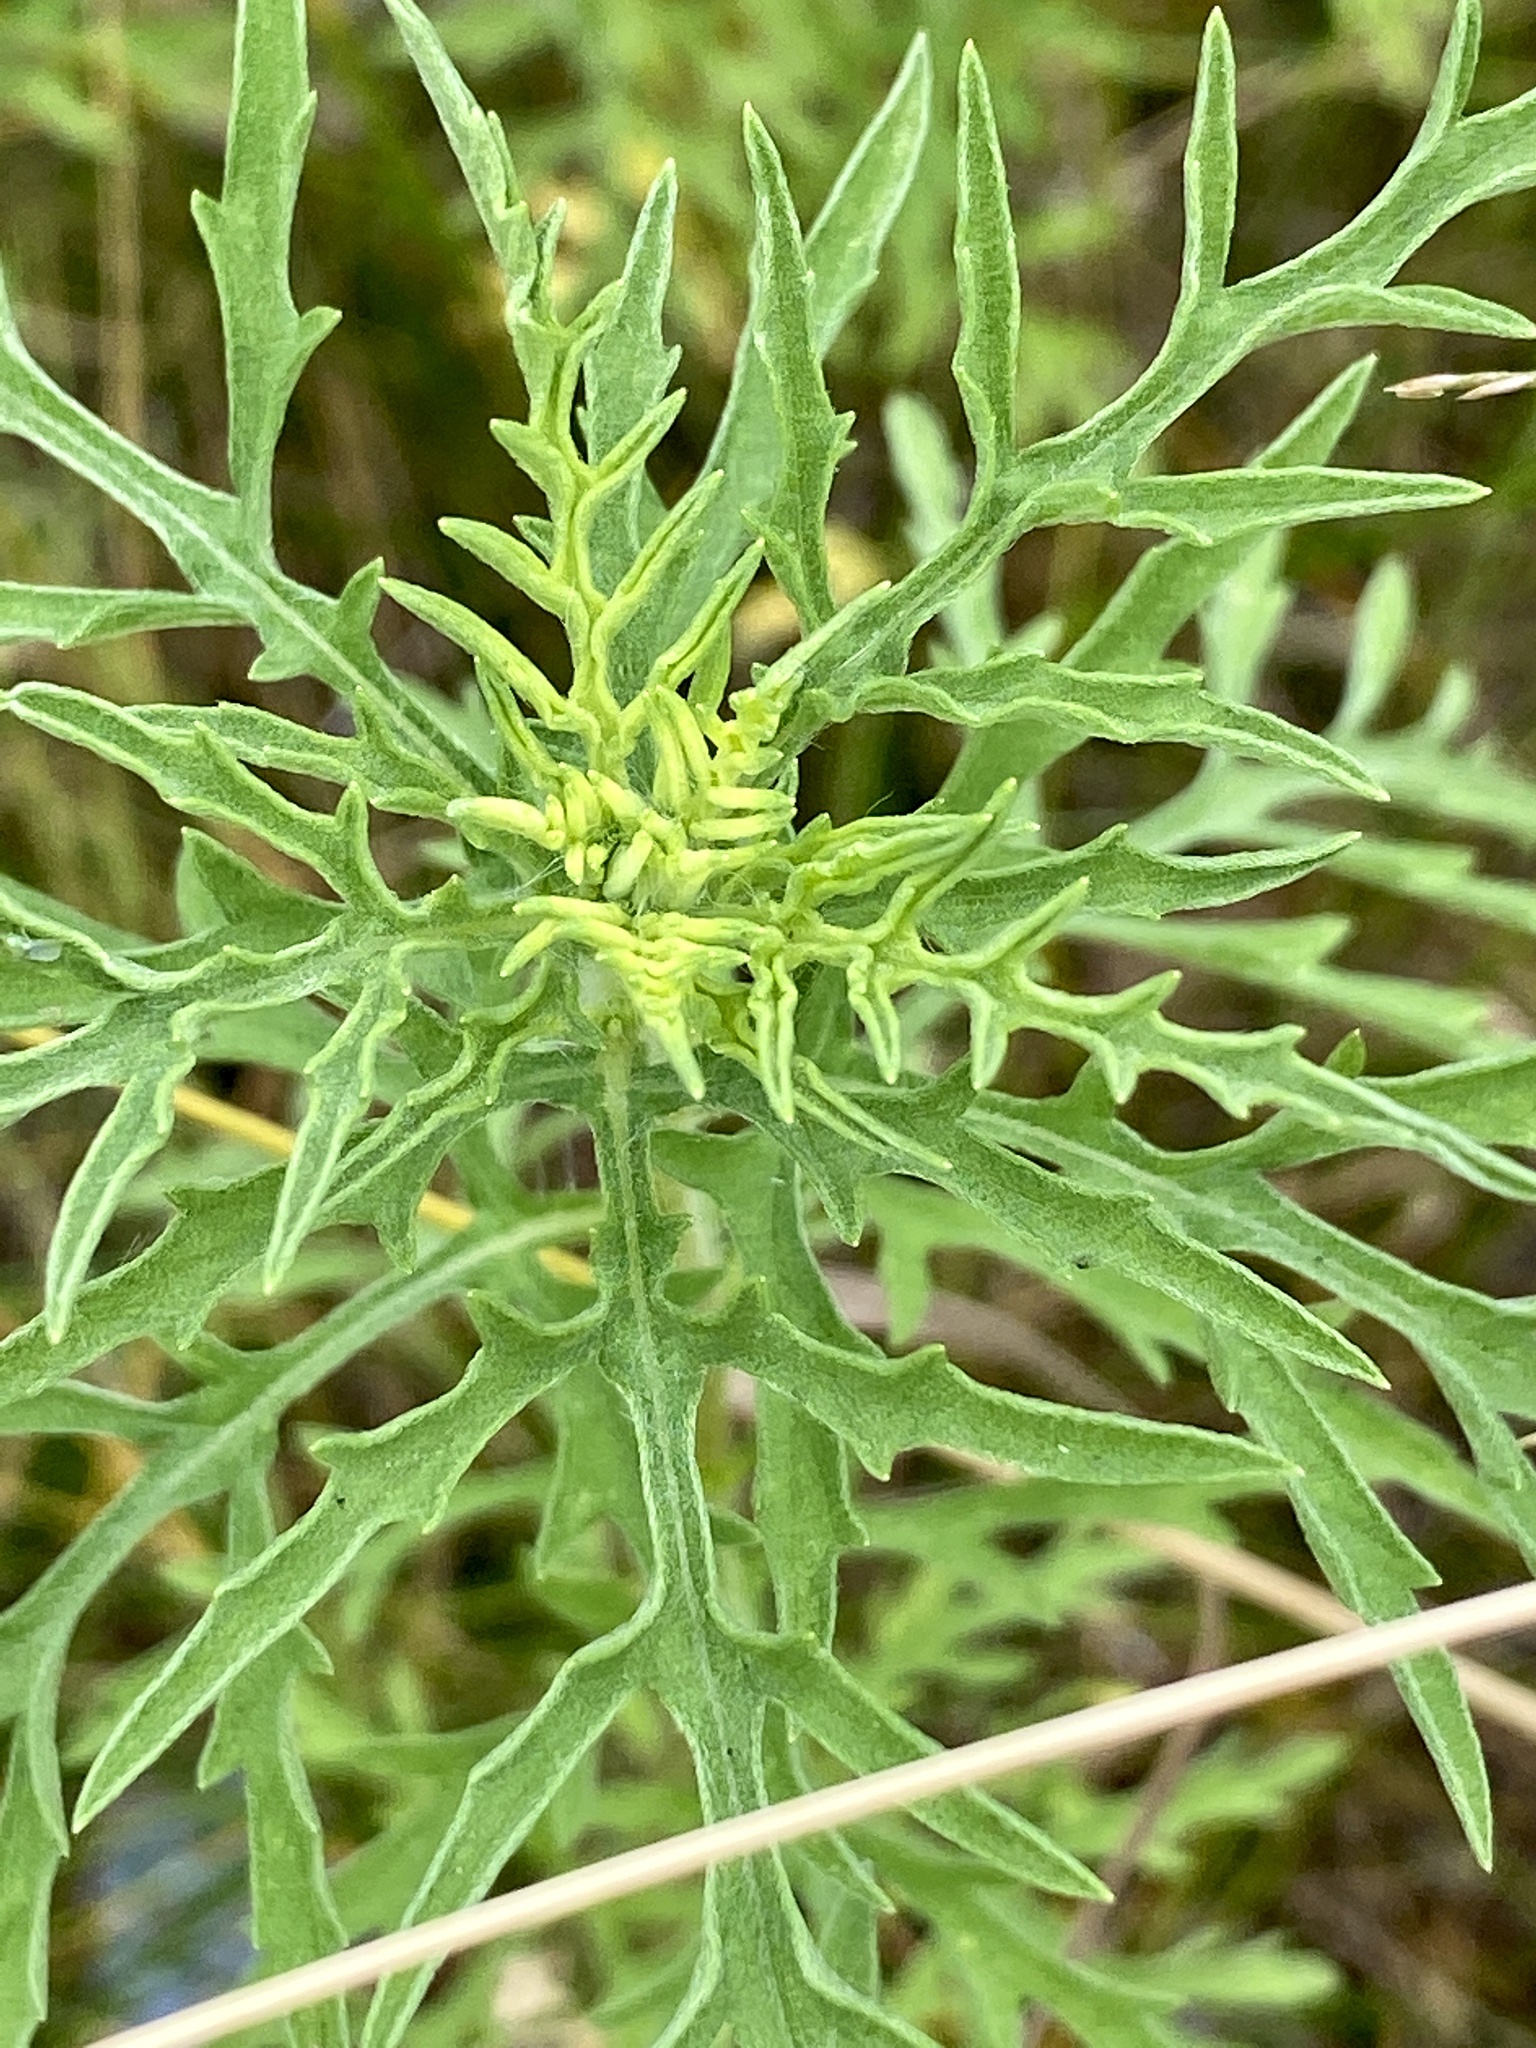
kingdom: Plantae
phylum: Tracheophyta
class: Magnoliopsida
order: Asterales
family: Asteraceae
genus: Ambrosia
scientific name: Ambrosia artemisiifolia
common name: Annual ragweed
